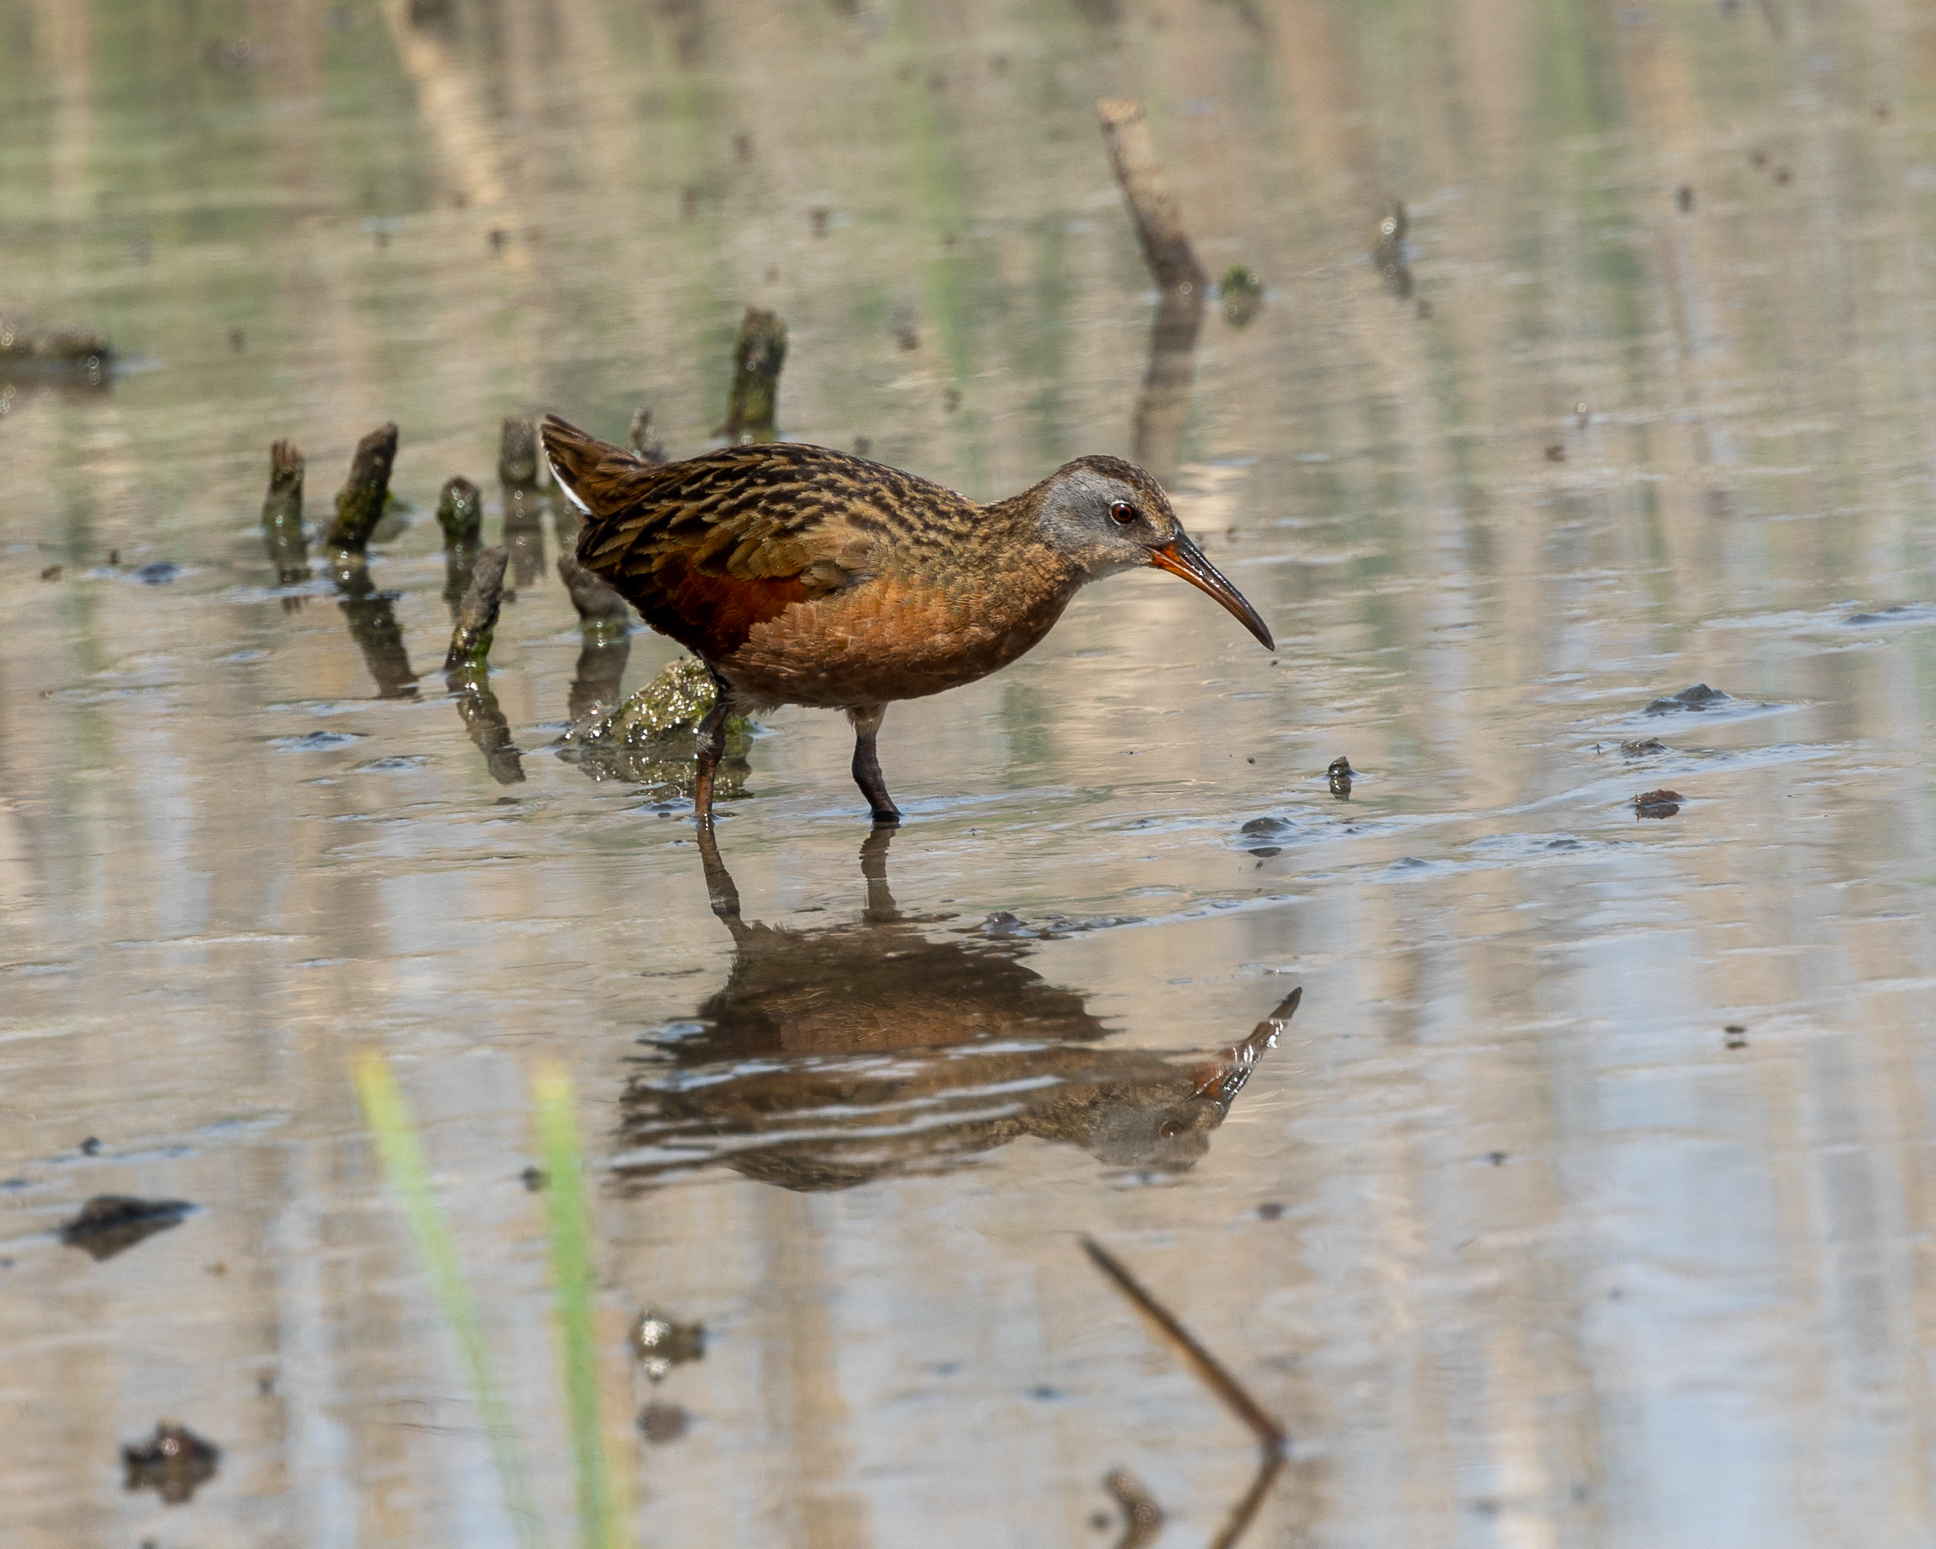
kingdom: Animalia
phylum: Chordata
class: Aves
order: Gruiformes
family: Rallidae
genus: Rallus
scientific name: Rallus limicola
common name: Virginia rail
